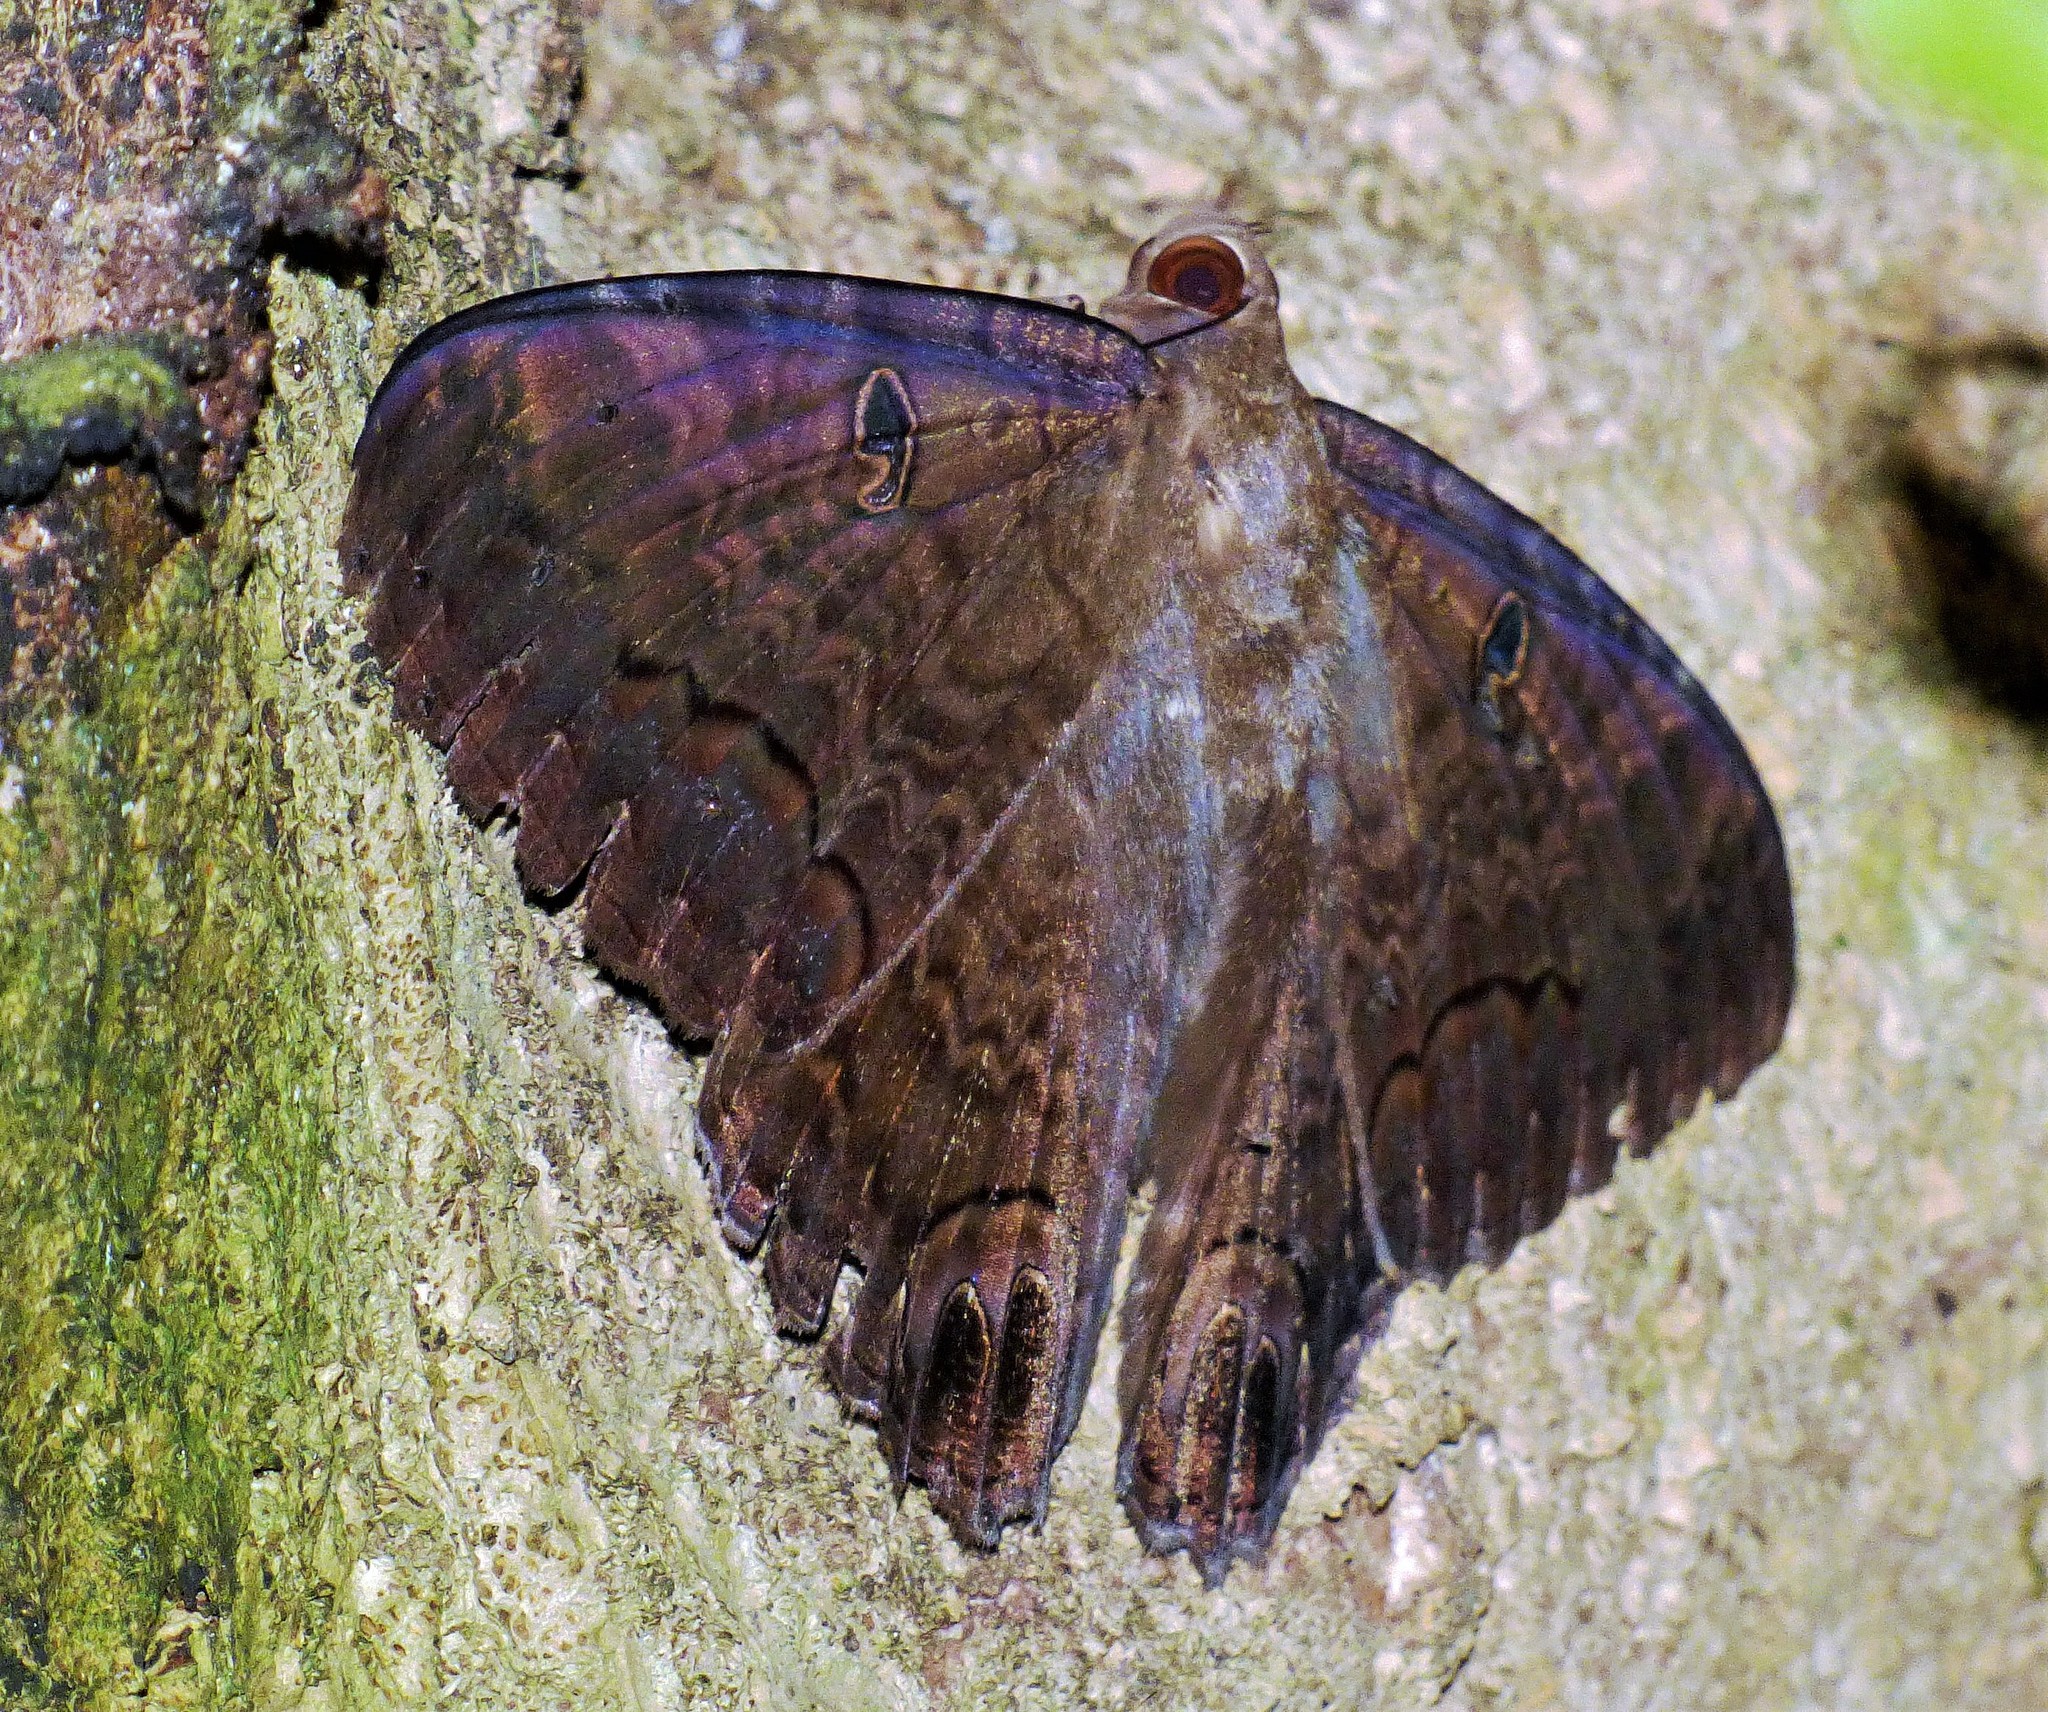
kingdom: Animalia
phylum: Arthropoda
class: Insecta
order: Lepidoptera
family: Erebidae
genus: Ascalapha
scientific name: Ascalapha odorata
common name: Black witch
